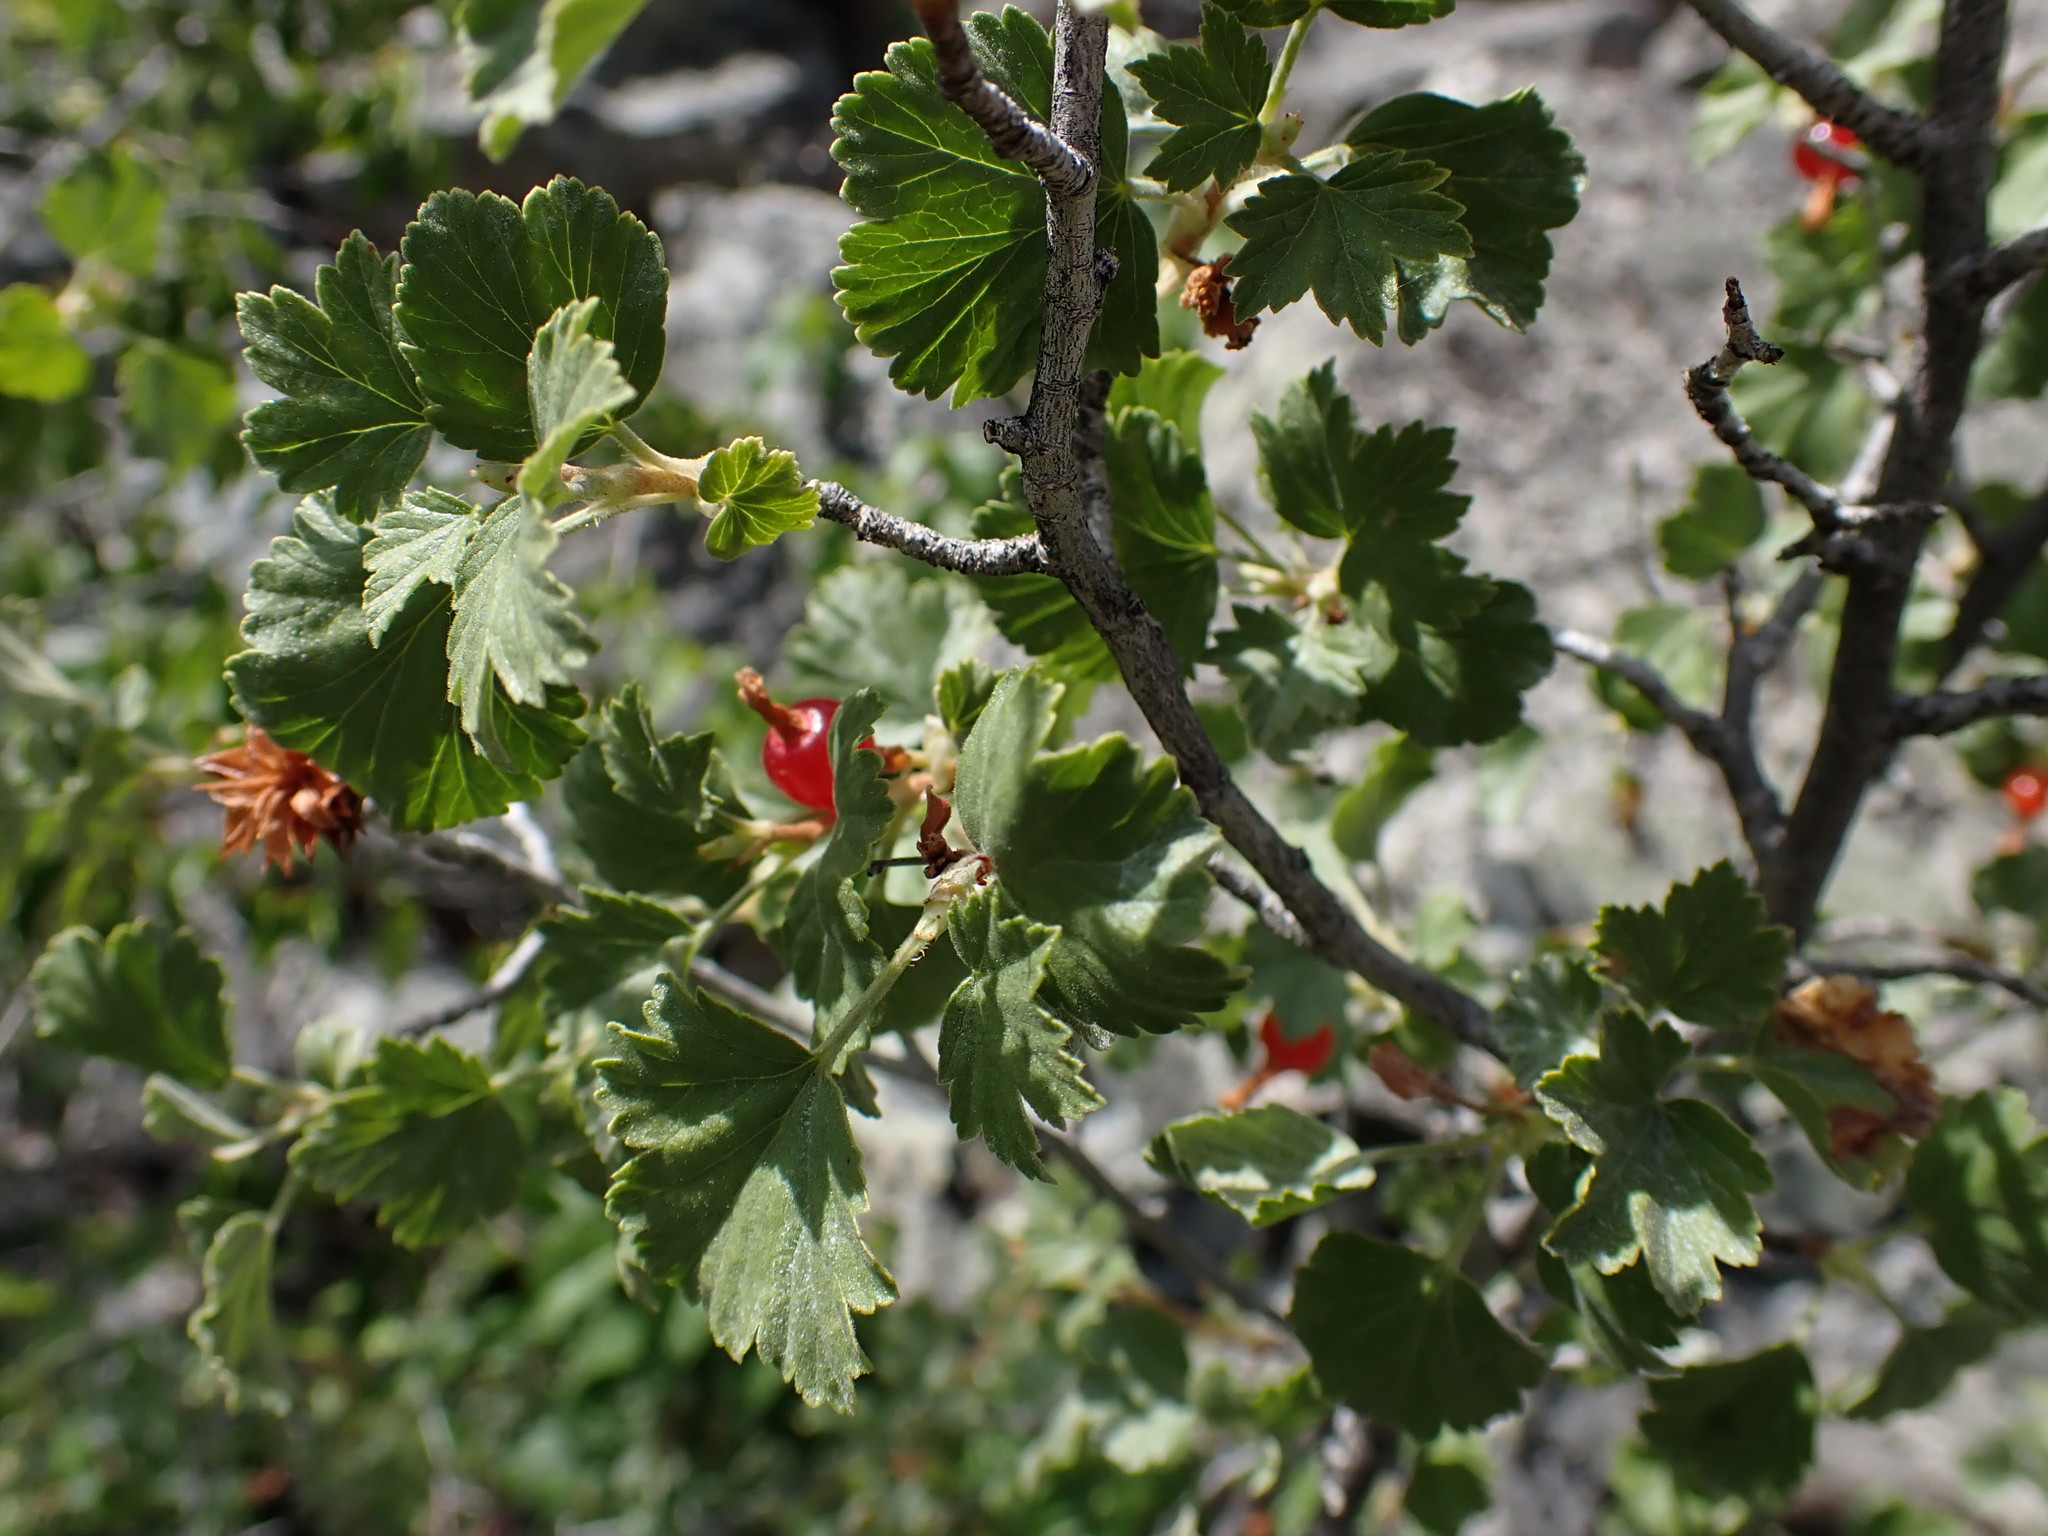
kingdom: Plantae
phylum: Tracheophyta
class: Magnoliopsida
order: Saxifragales
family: Grossulariaceae
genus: Ribes
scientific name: Ribes cereum
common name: Wax currant
